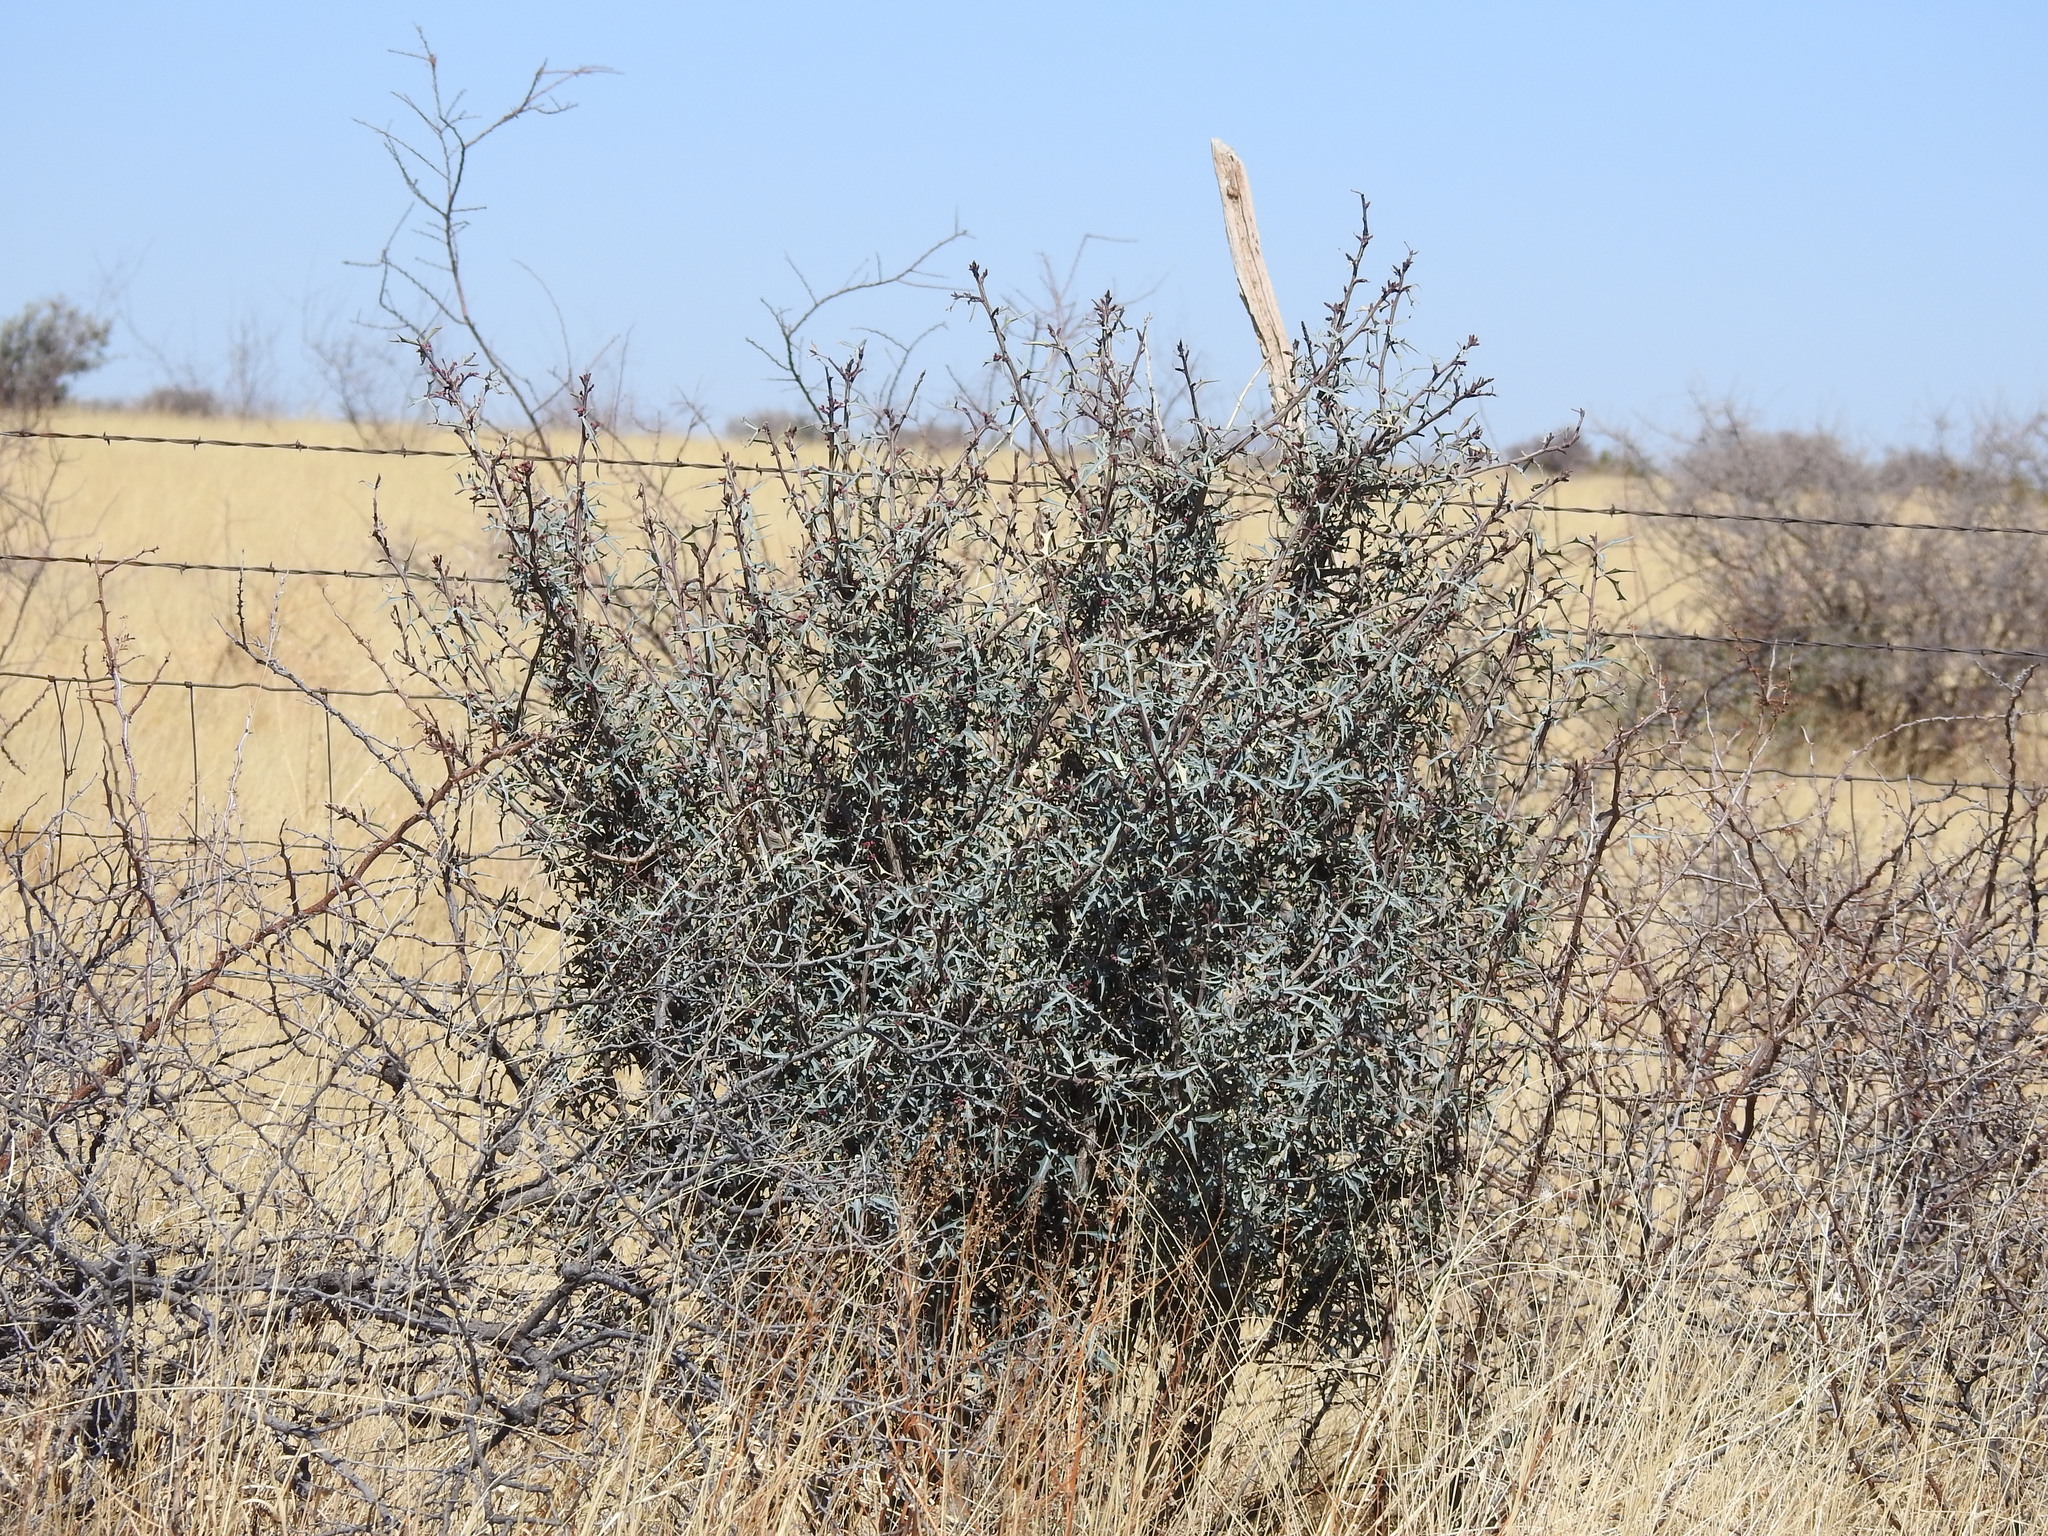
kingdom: Plantae
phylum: Tracheophyta
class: Magnoliopsida
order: Ranunculales
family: Berberidaceae
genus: Alloberberis
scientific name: Alloberberis trifoliolata
